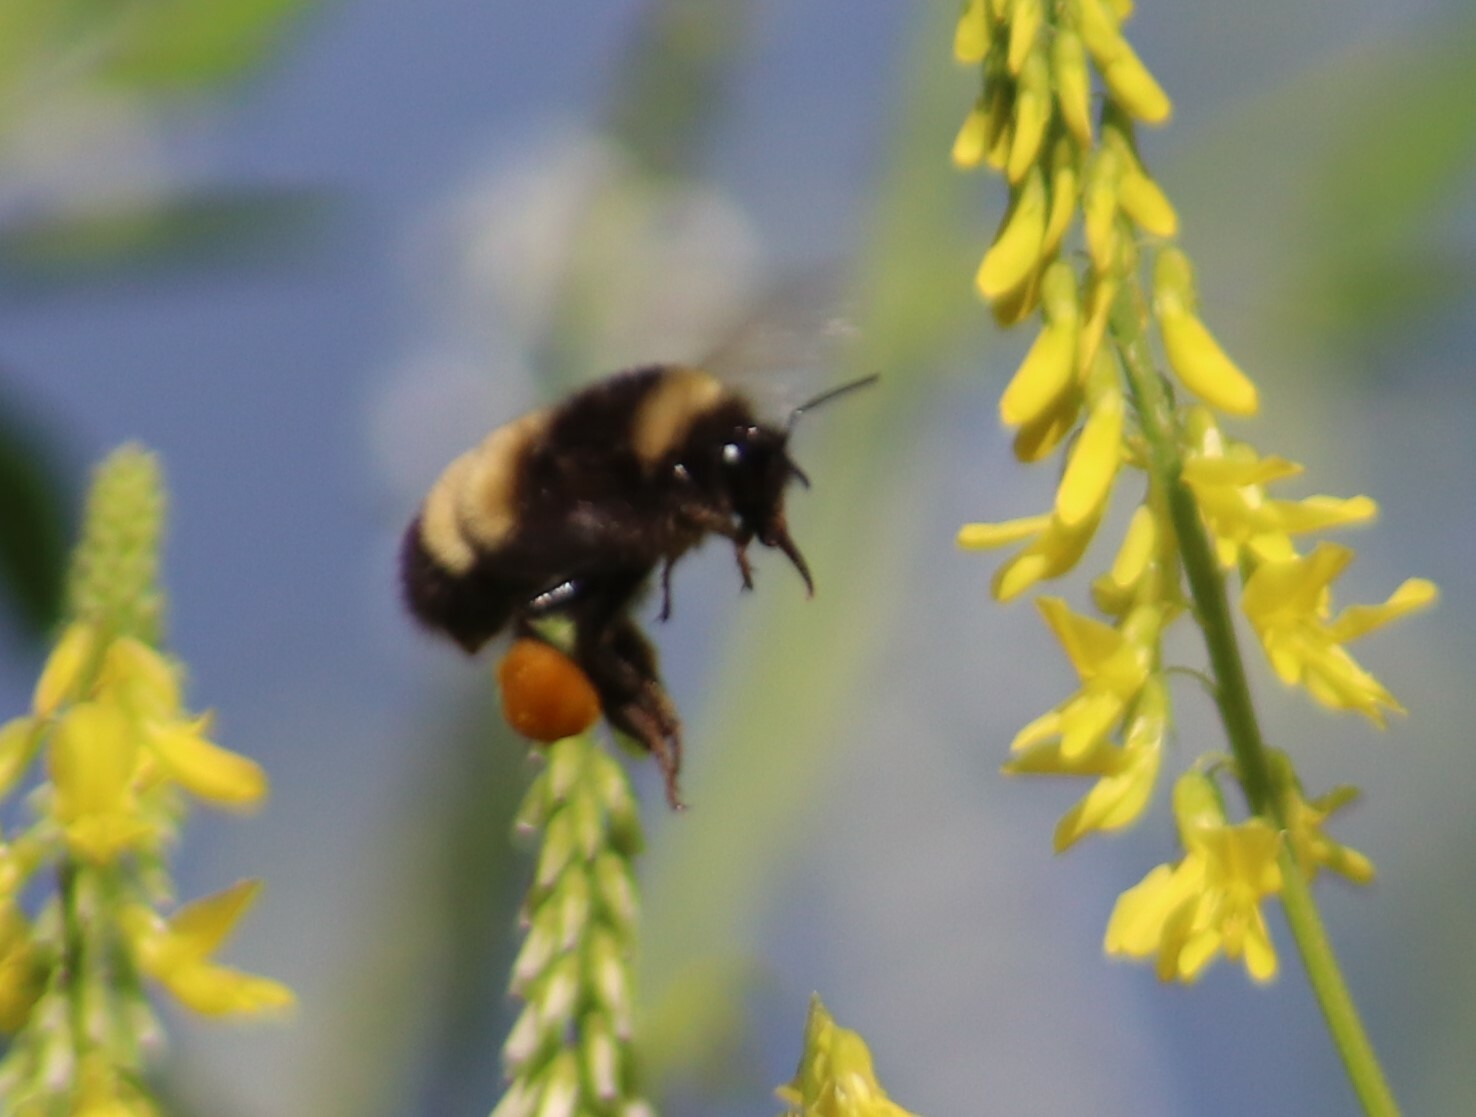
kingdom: Animalia
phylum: Arthropoda
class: Insecta
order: Hymenoptera
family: Apidae
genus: Bombus
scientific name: Bombus terricola
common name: Yellow-banded bumble bee
